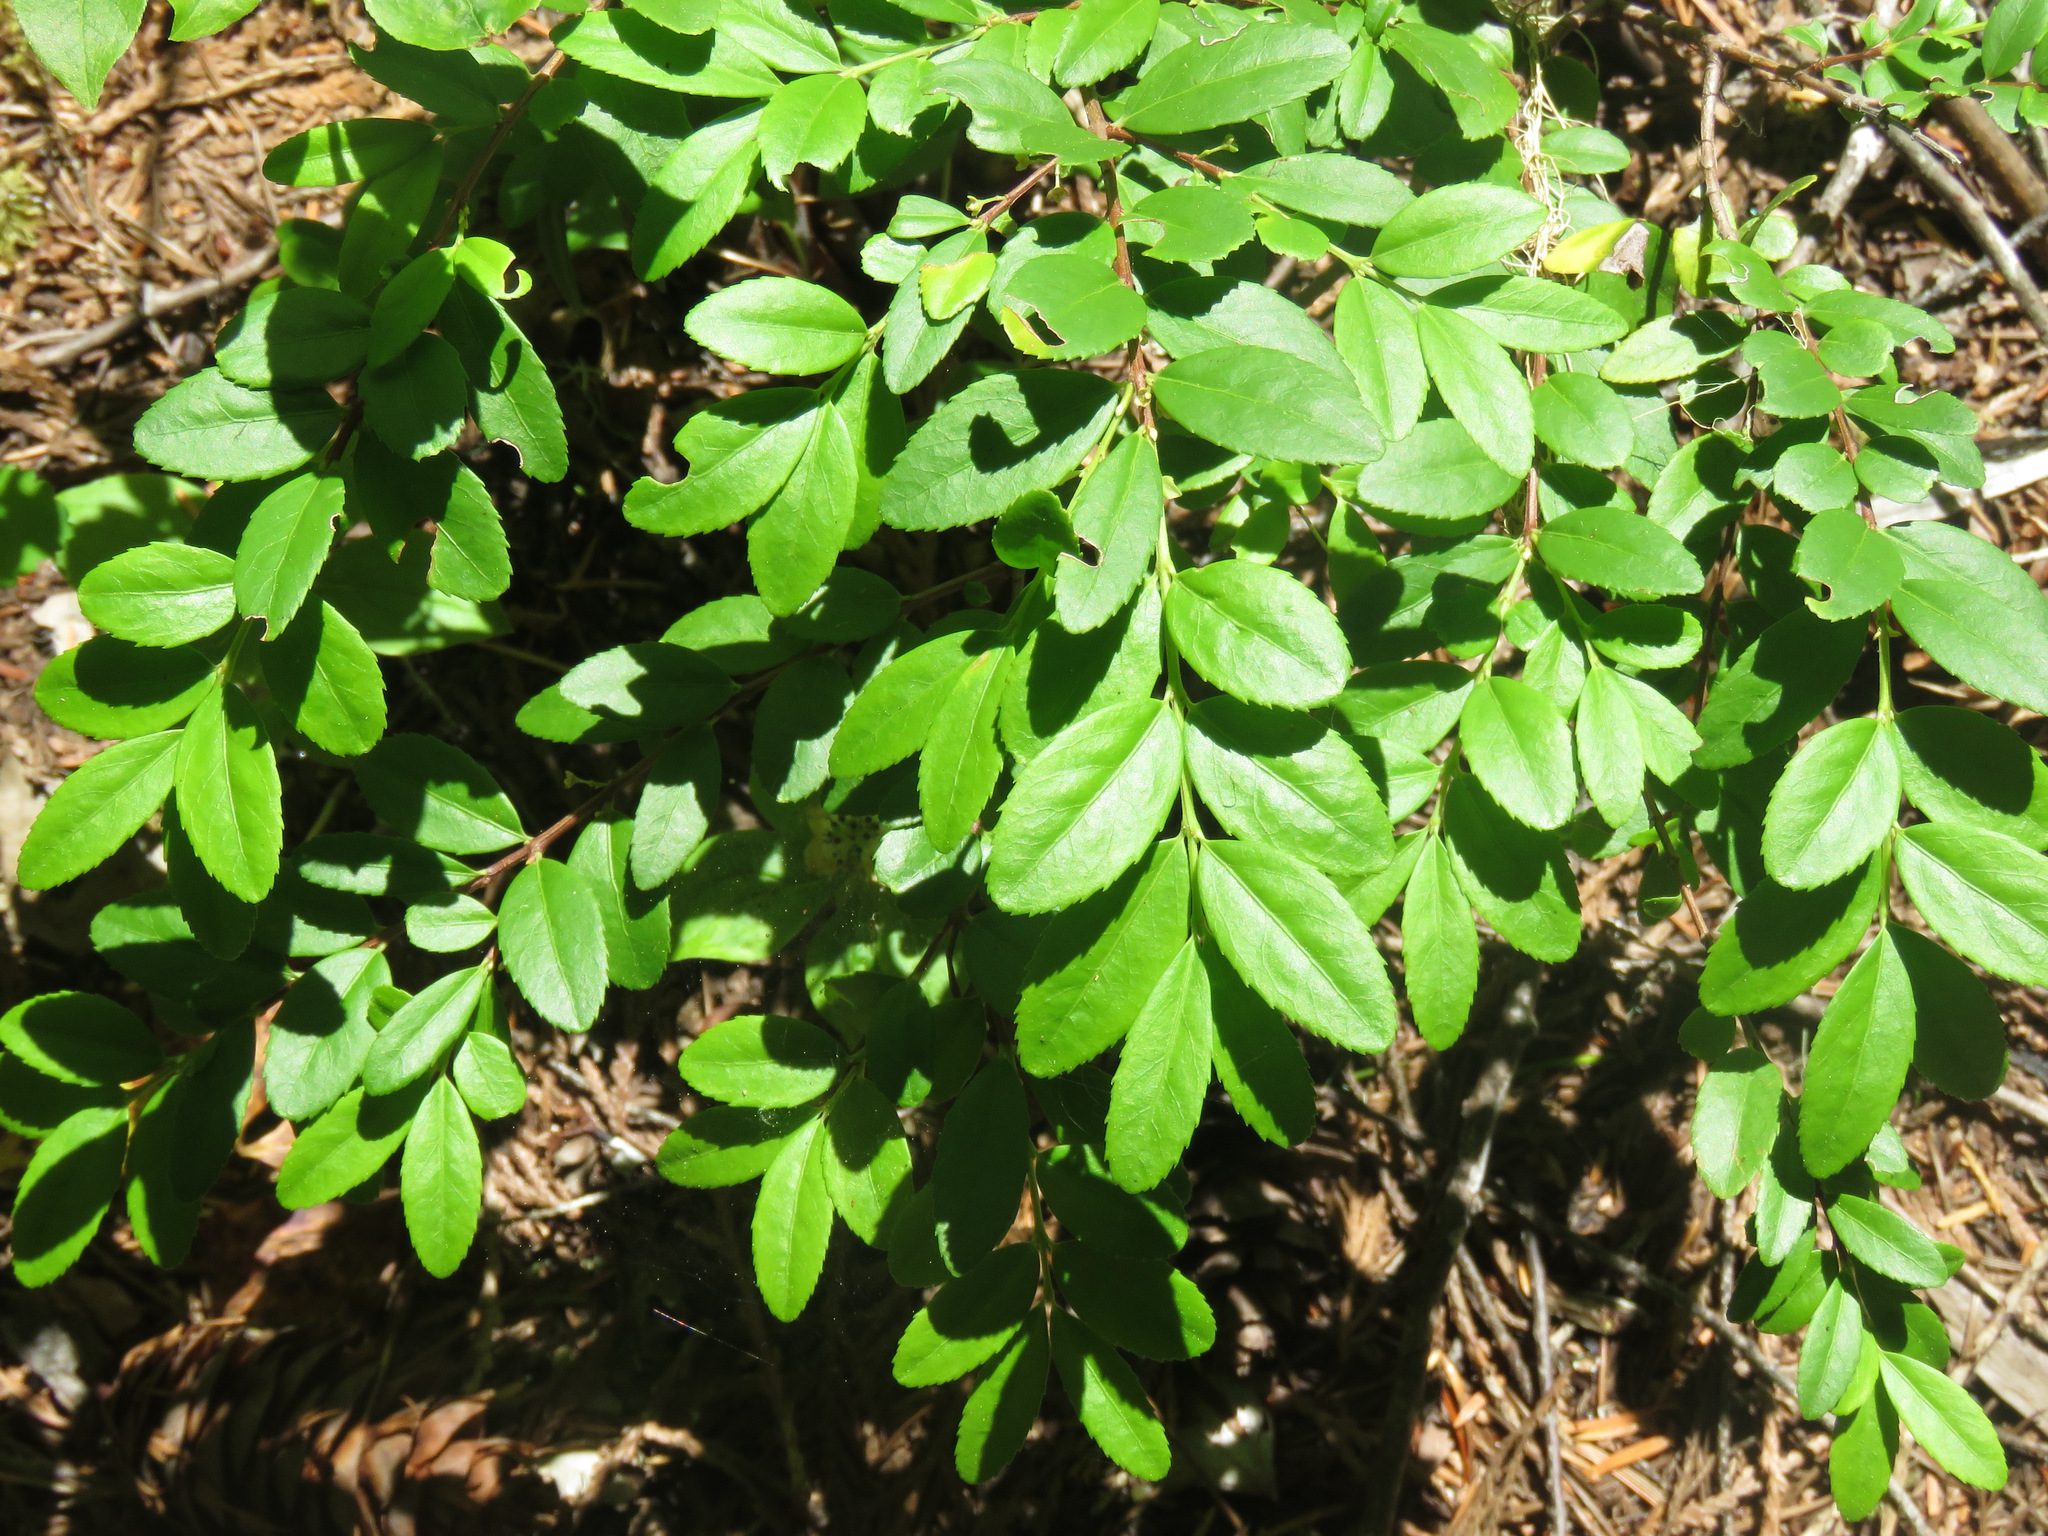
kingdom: Plantae
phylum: Tracheophyta
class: Magnoliopsida
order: Celastrales
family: Celastraceae
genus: Paxistima
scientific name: Paxistima myrsinites
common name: Mountain-lover
